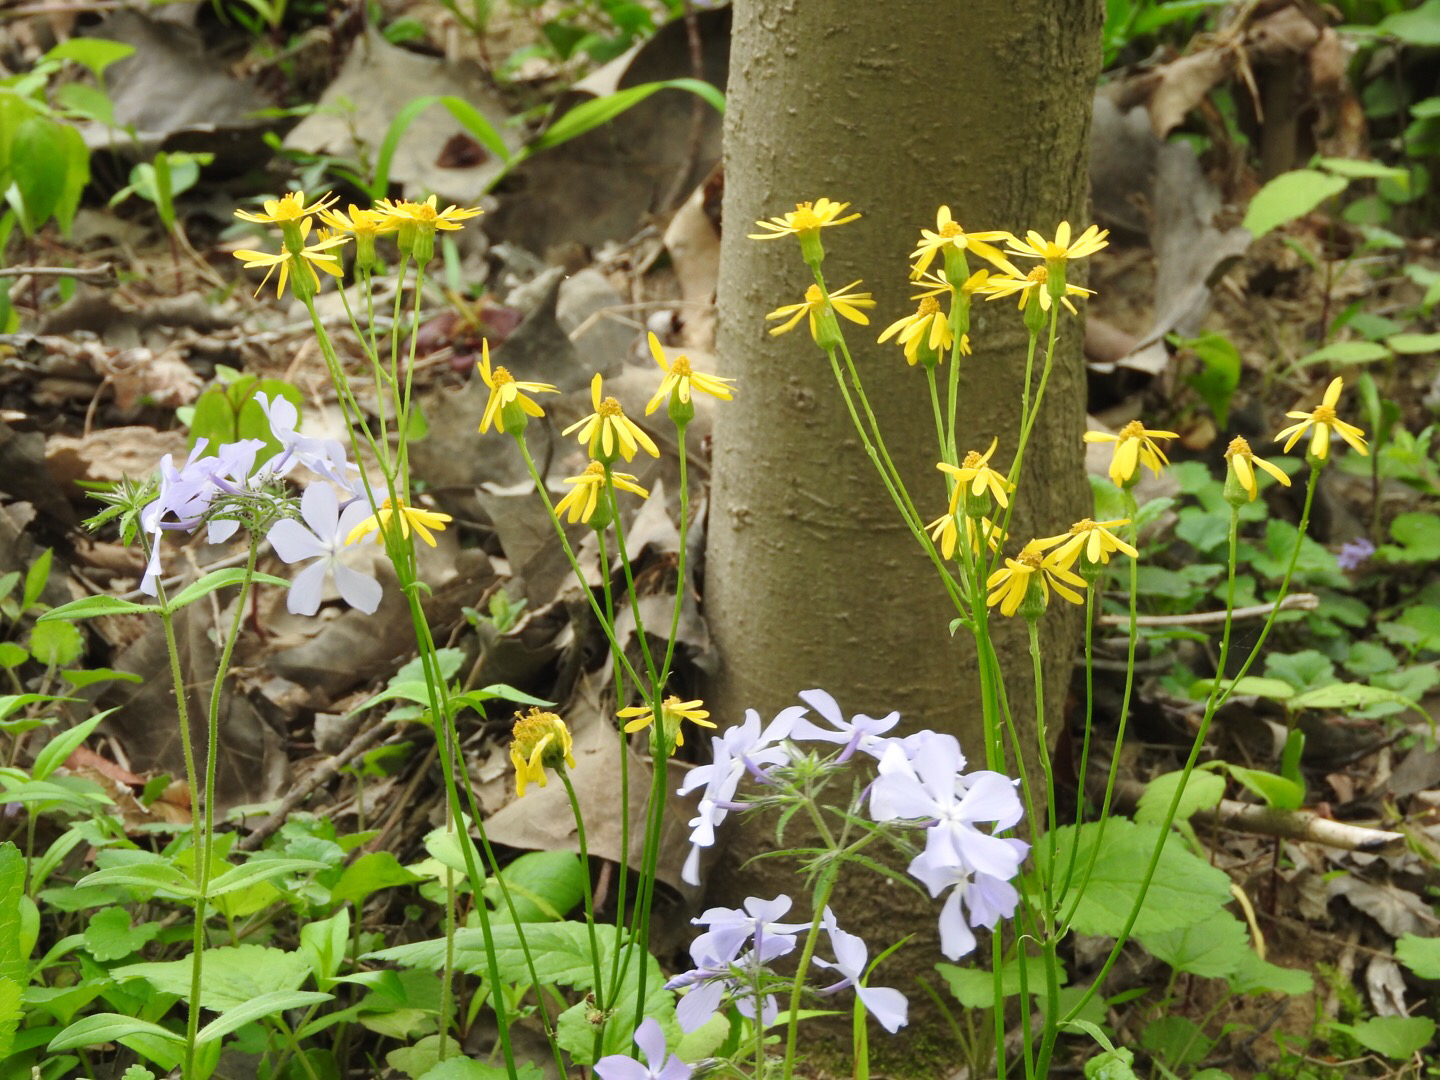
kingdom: Plantae
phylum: Tracheophyta
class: Magnoliopsida
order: Asterales
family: Asteraceae
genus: Packera
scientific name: Packera aurea
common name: Golden groundsel
